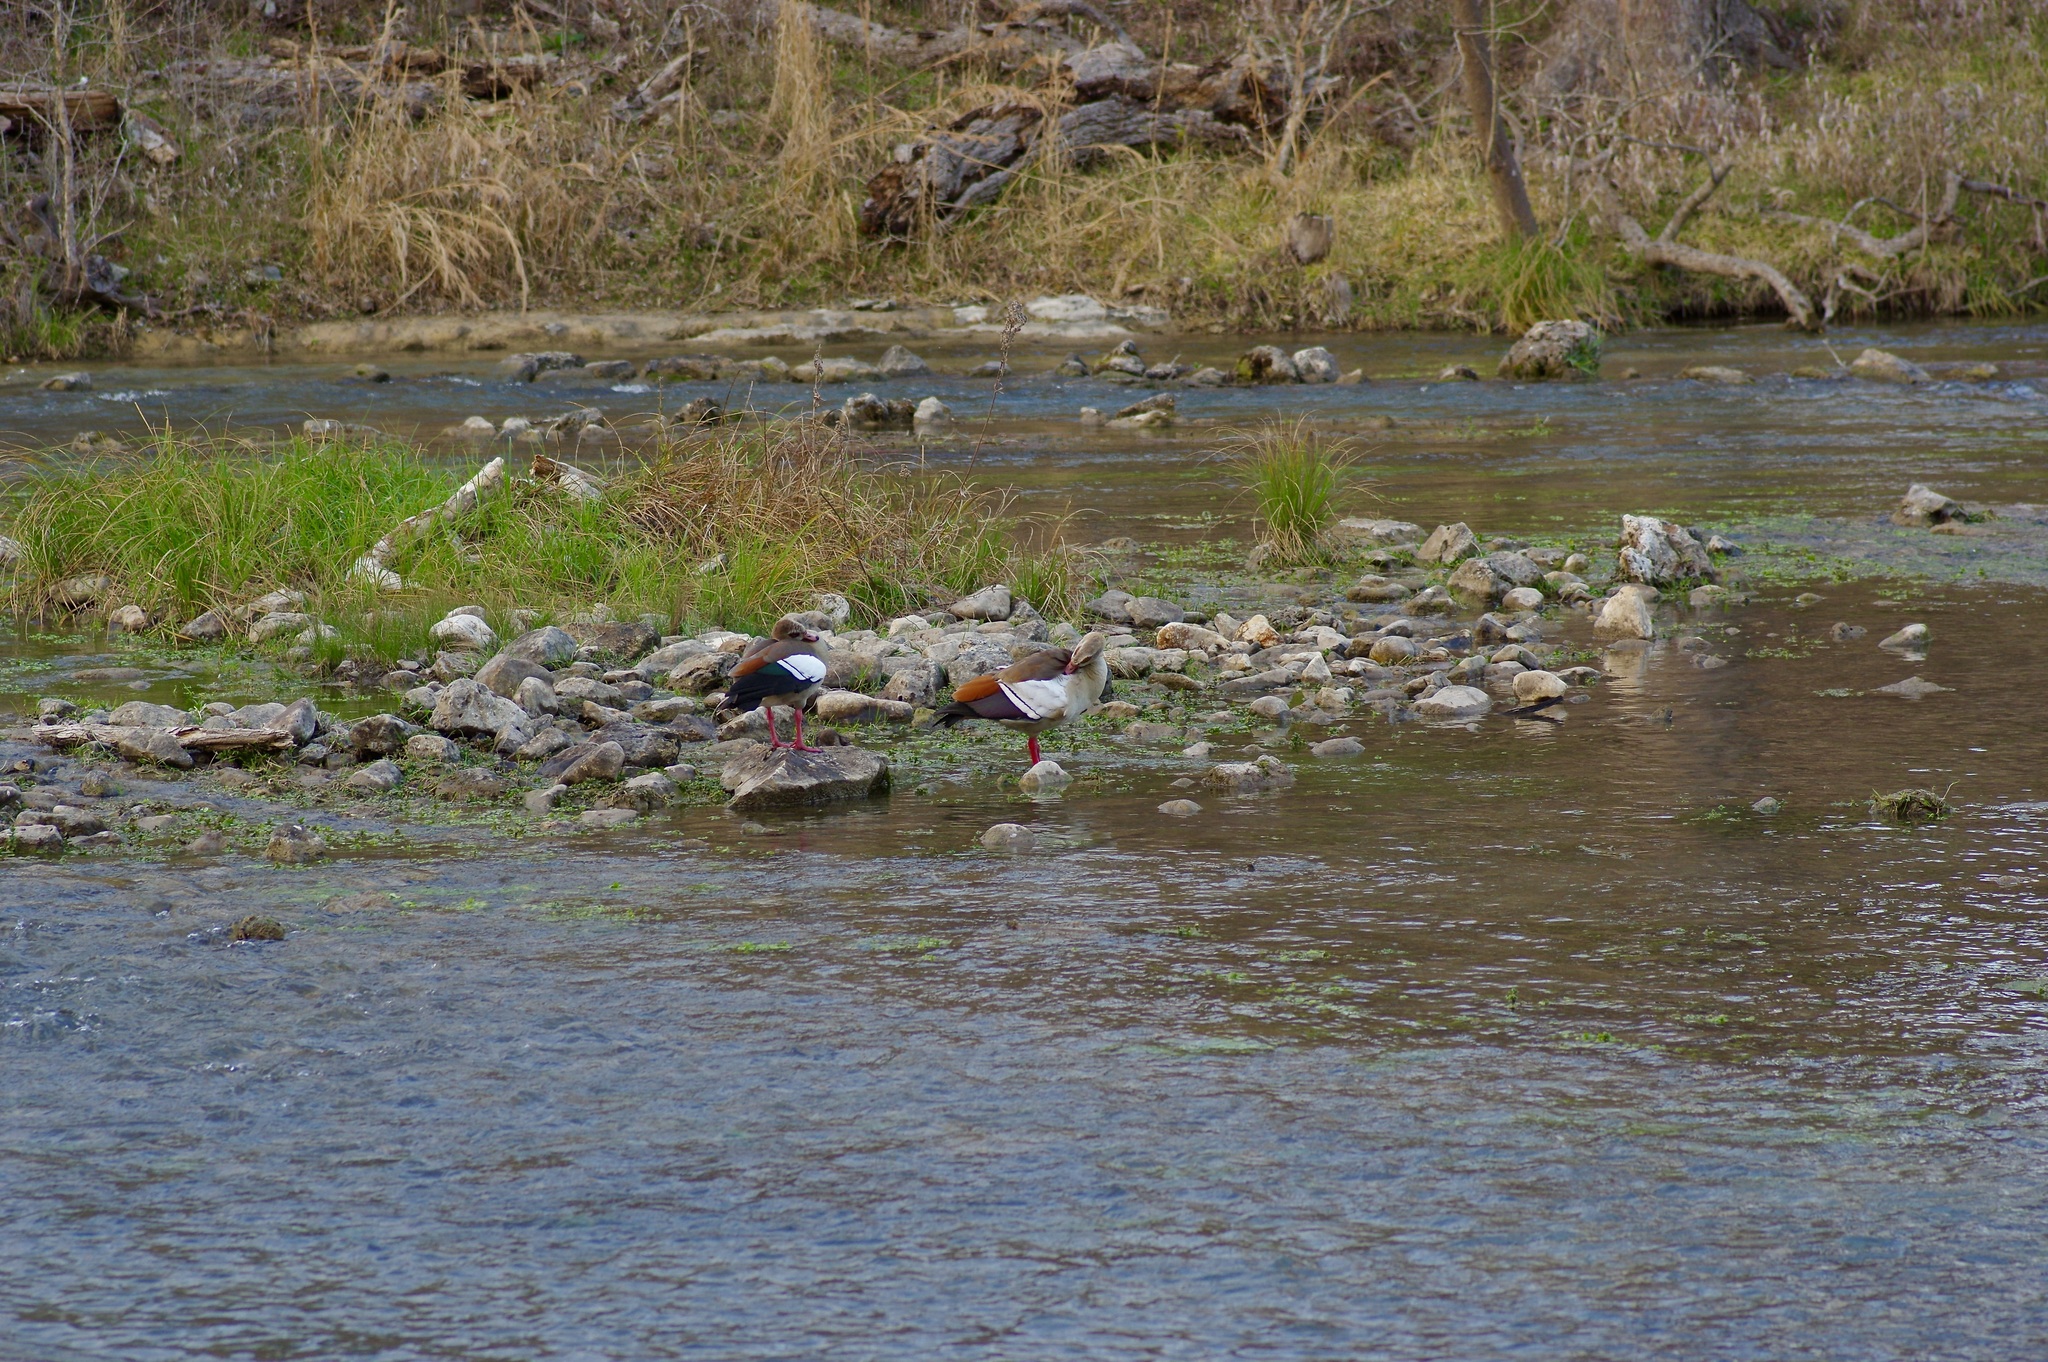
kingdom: Animalia
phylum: Chordata
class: Aves
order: Anseriformes
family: Anatidae
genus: Alopochen
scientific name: Alopochen aegyptiaca
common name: Egyptian goose
